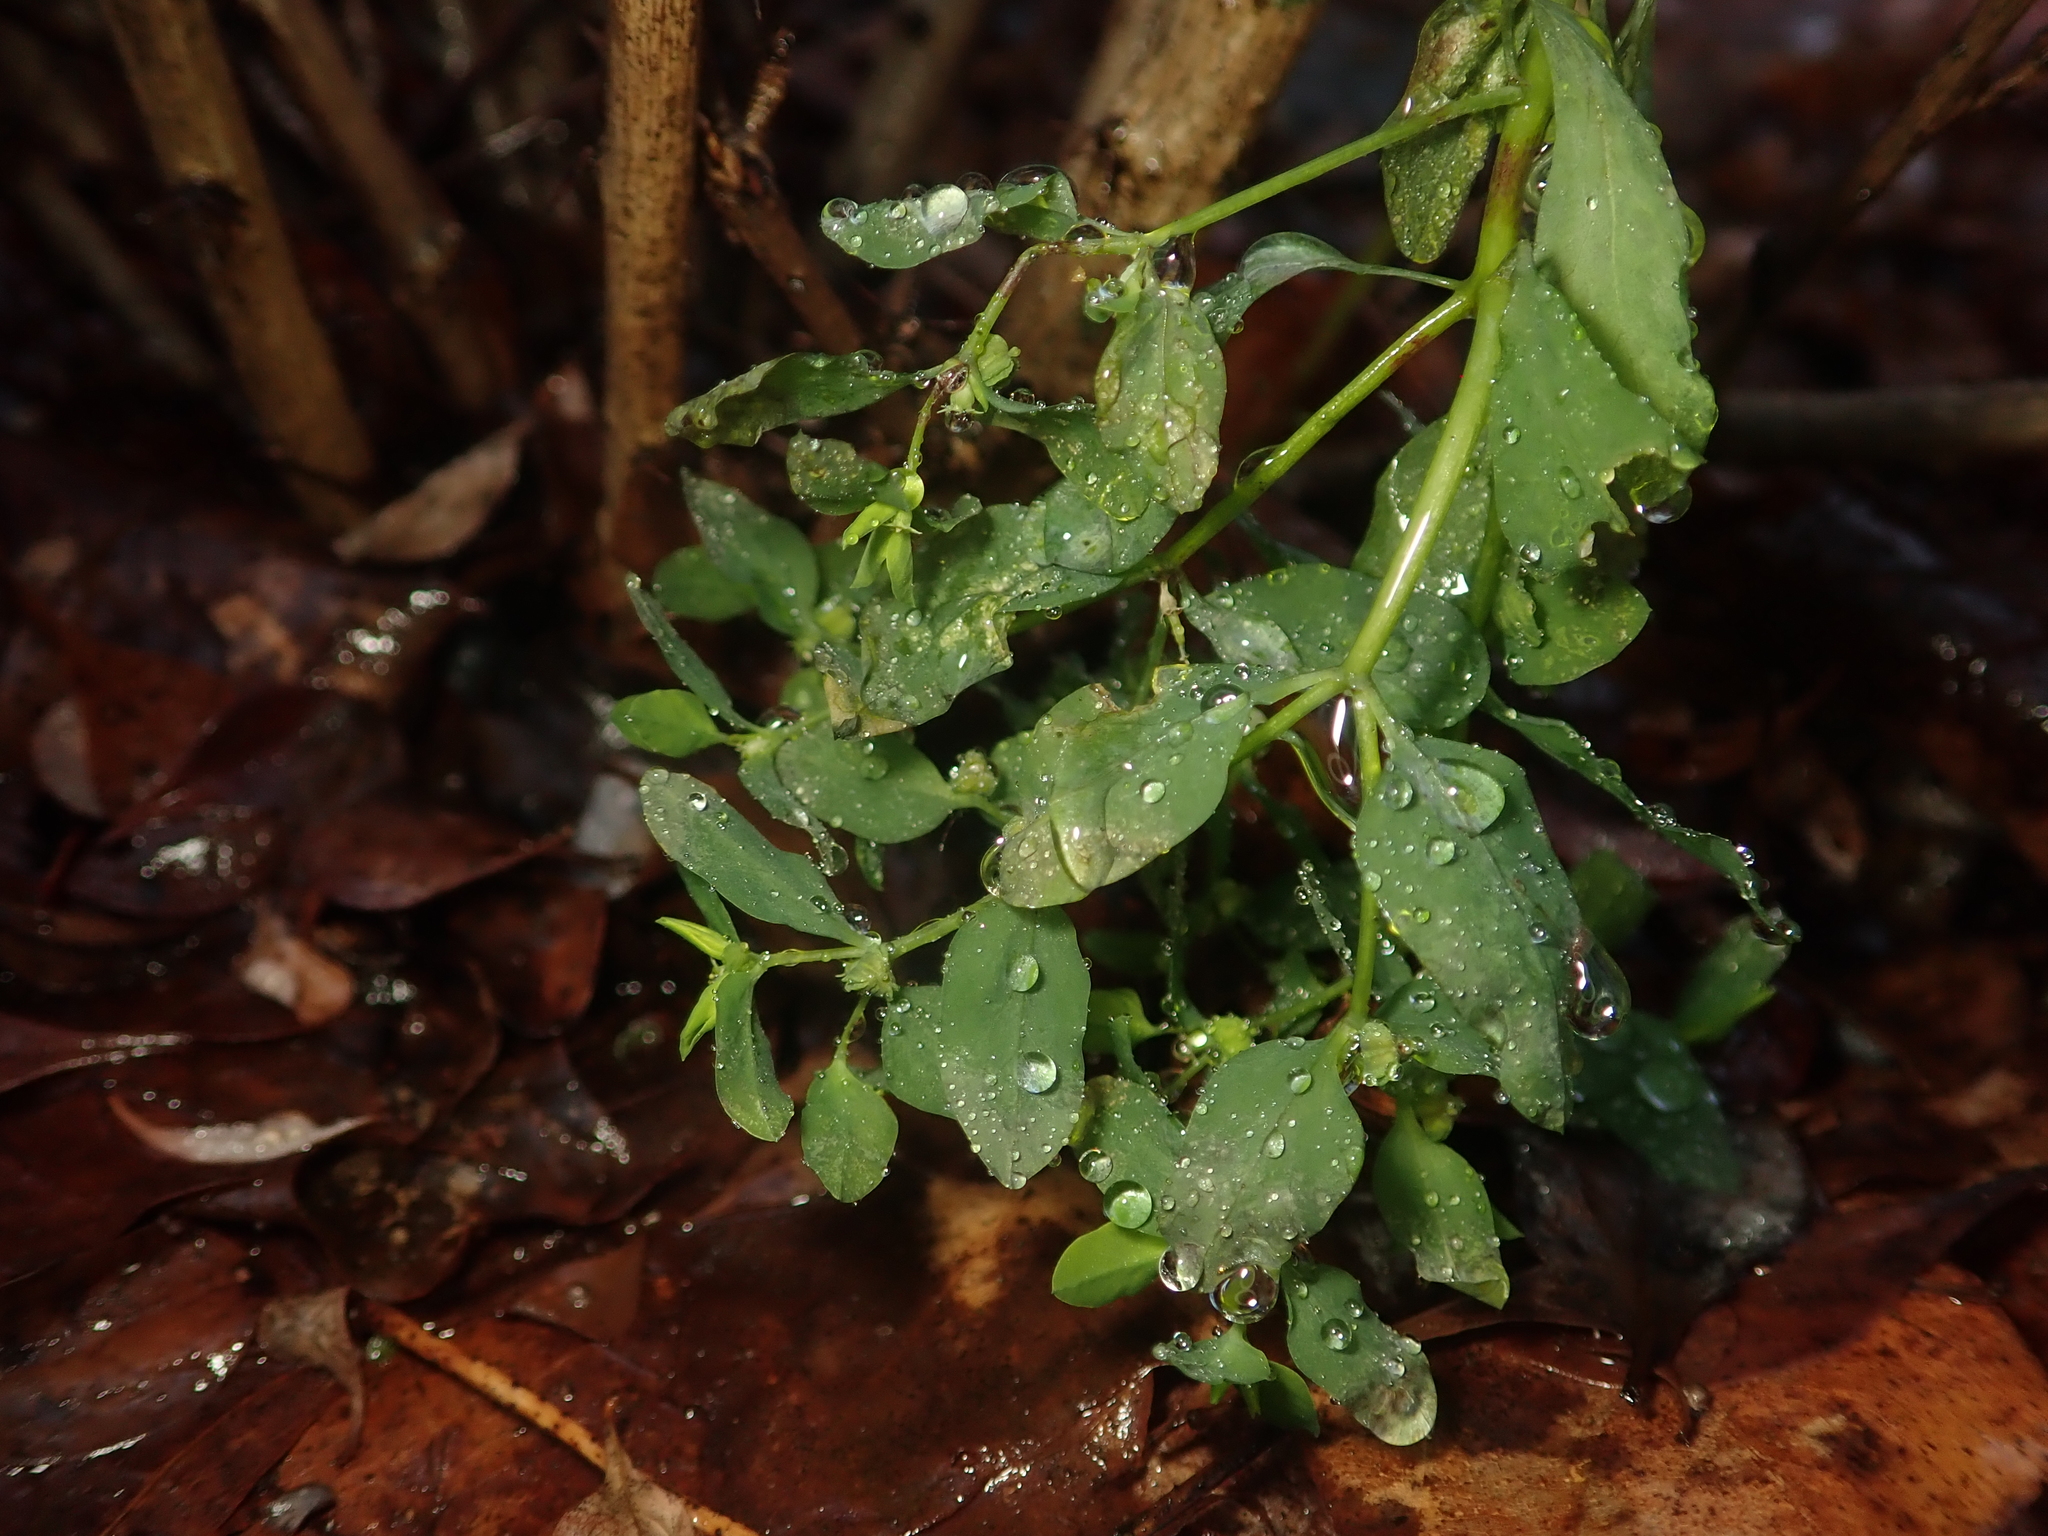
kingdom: Plantae
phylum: Tracheophyta
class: Magnoliopsida
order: Malpighiales
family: Euphorbiaceae
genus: Euphorbia
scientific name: Euphorbia peplus
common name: Petty spurge
